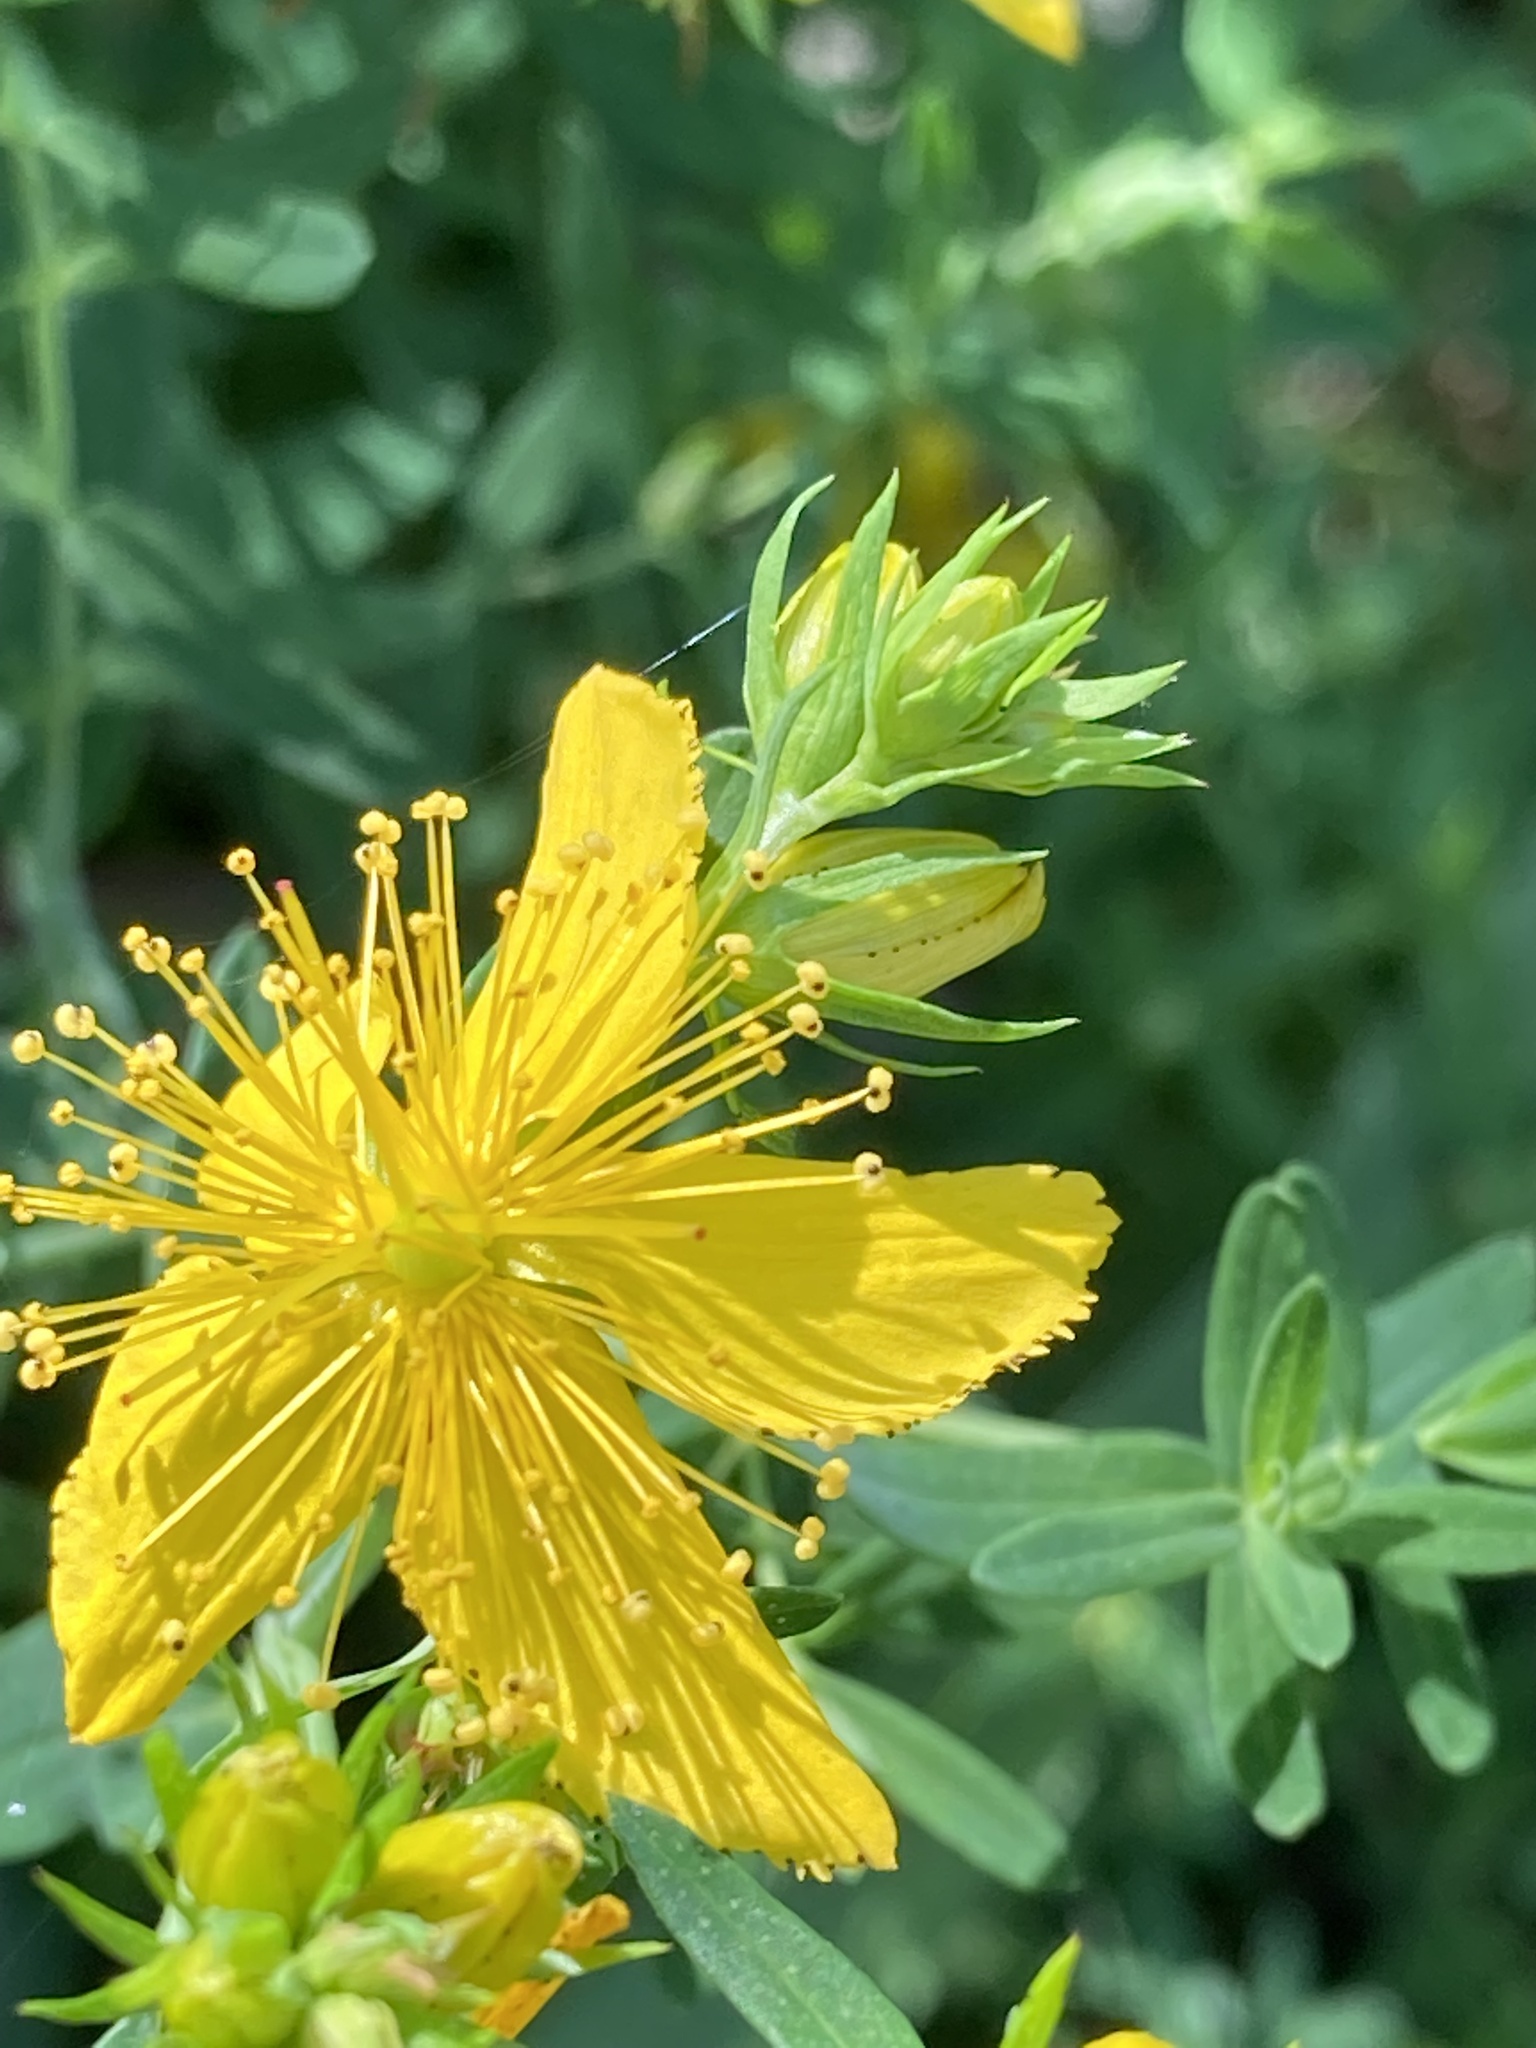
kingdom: Plantae
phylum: Tracheophyta
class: Magnoliopsida
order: Malpighiales
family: Hypericaceae
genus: Hypericum
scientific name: Hypericum perforatum
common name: Common st. johnswort
